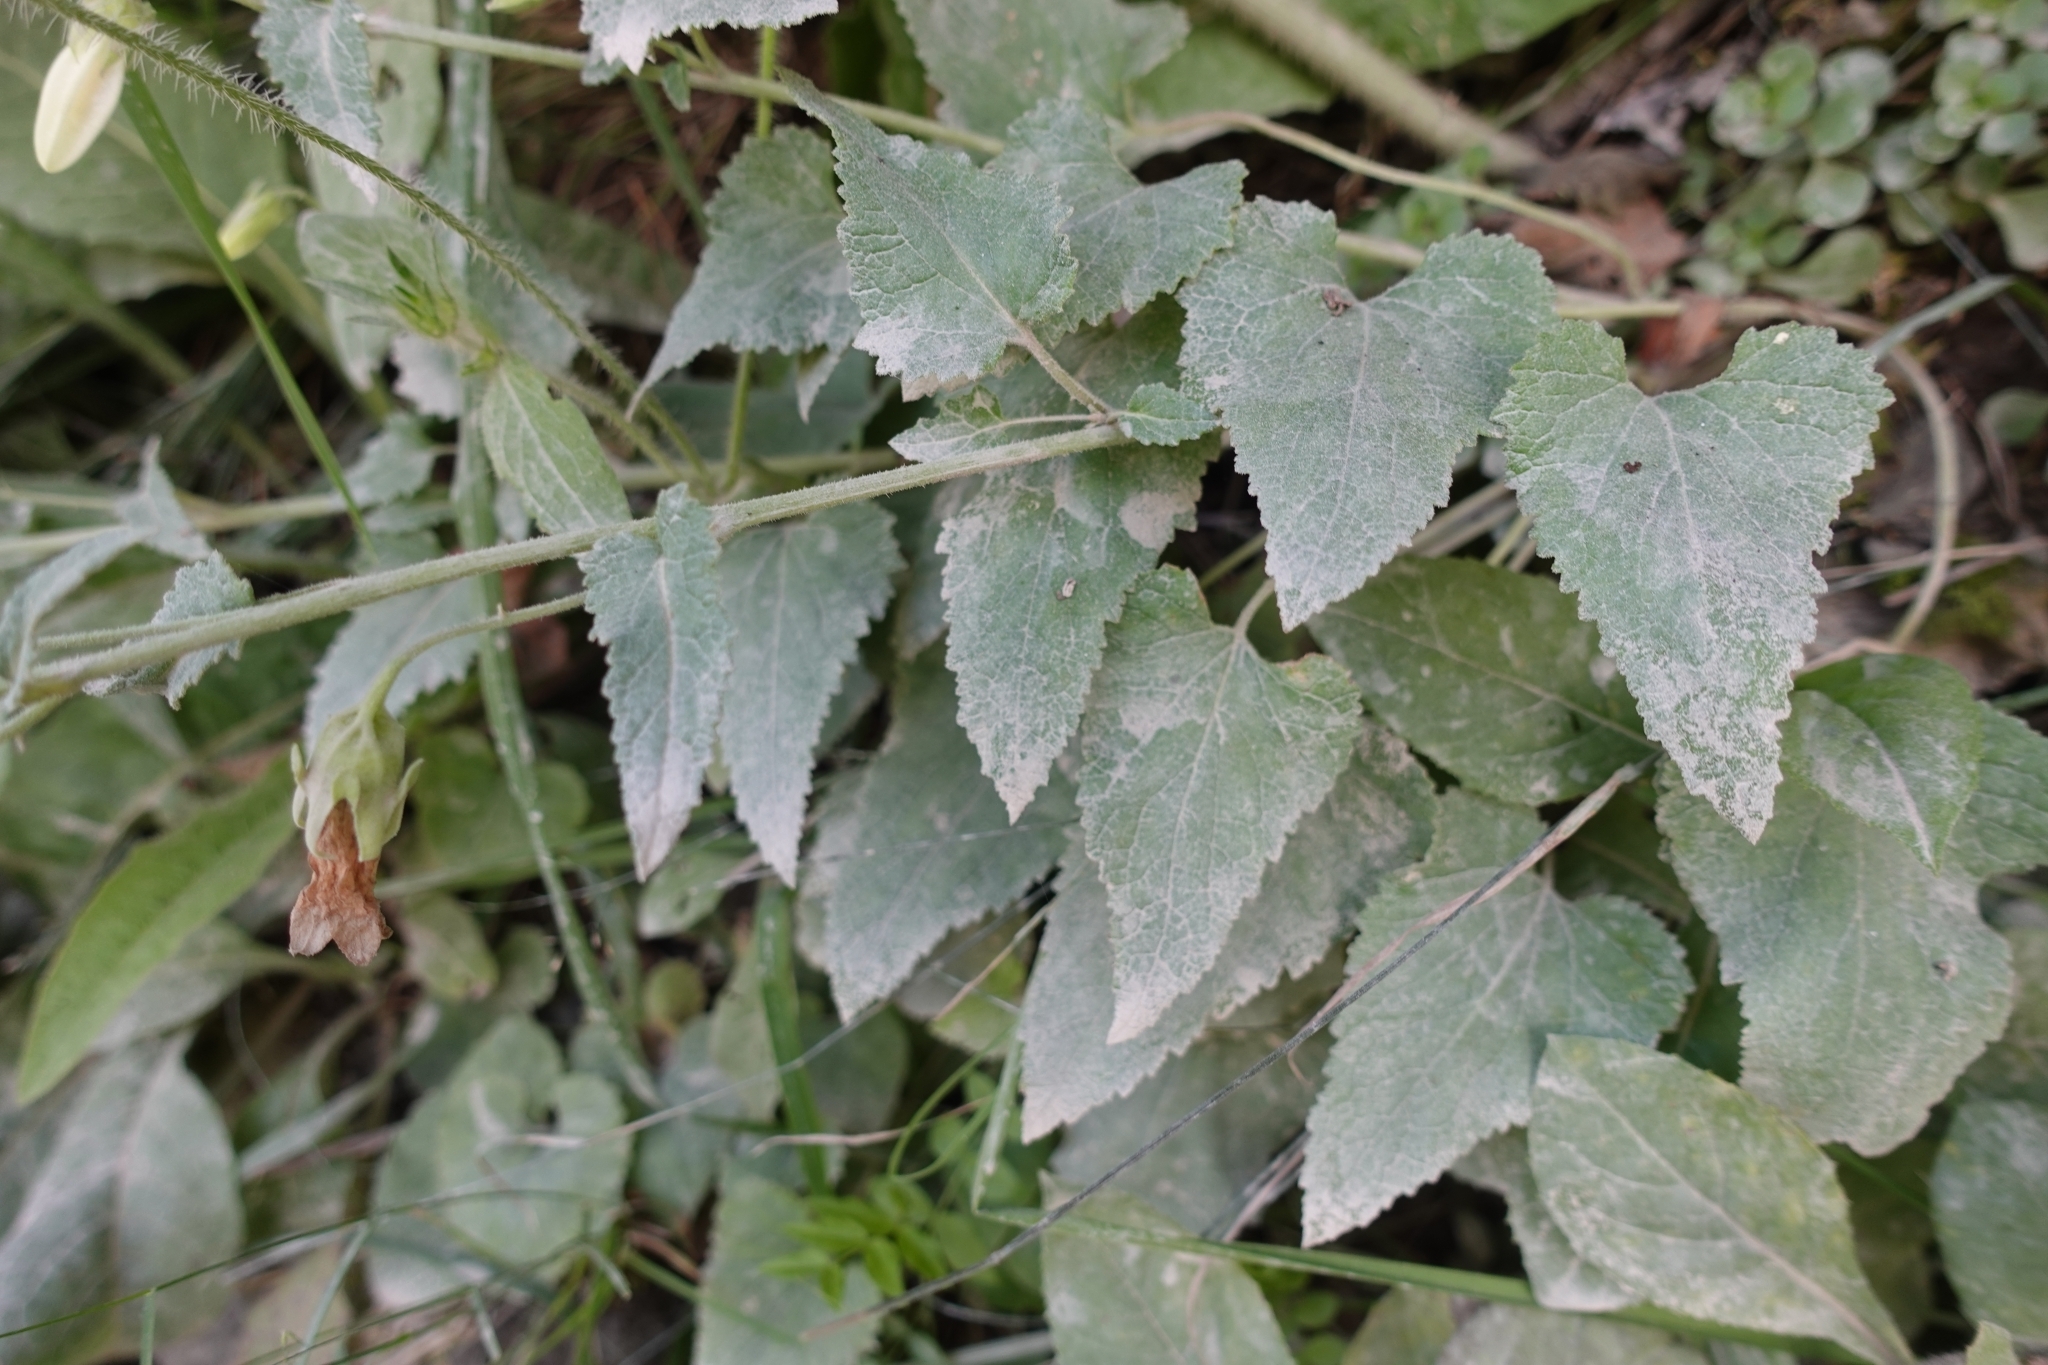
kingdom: Plantae
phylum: Tracheophyta
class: Magnoliopsida
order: Asterales
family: Campanulaceae
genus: Campanula
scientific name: Campanula alliariifolia
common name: Cornish bellflower
